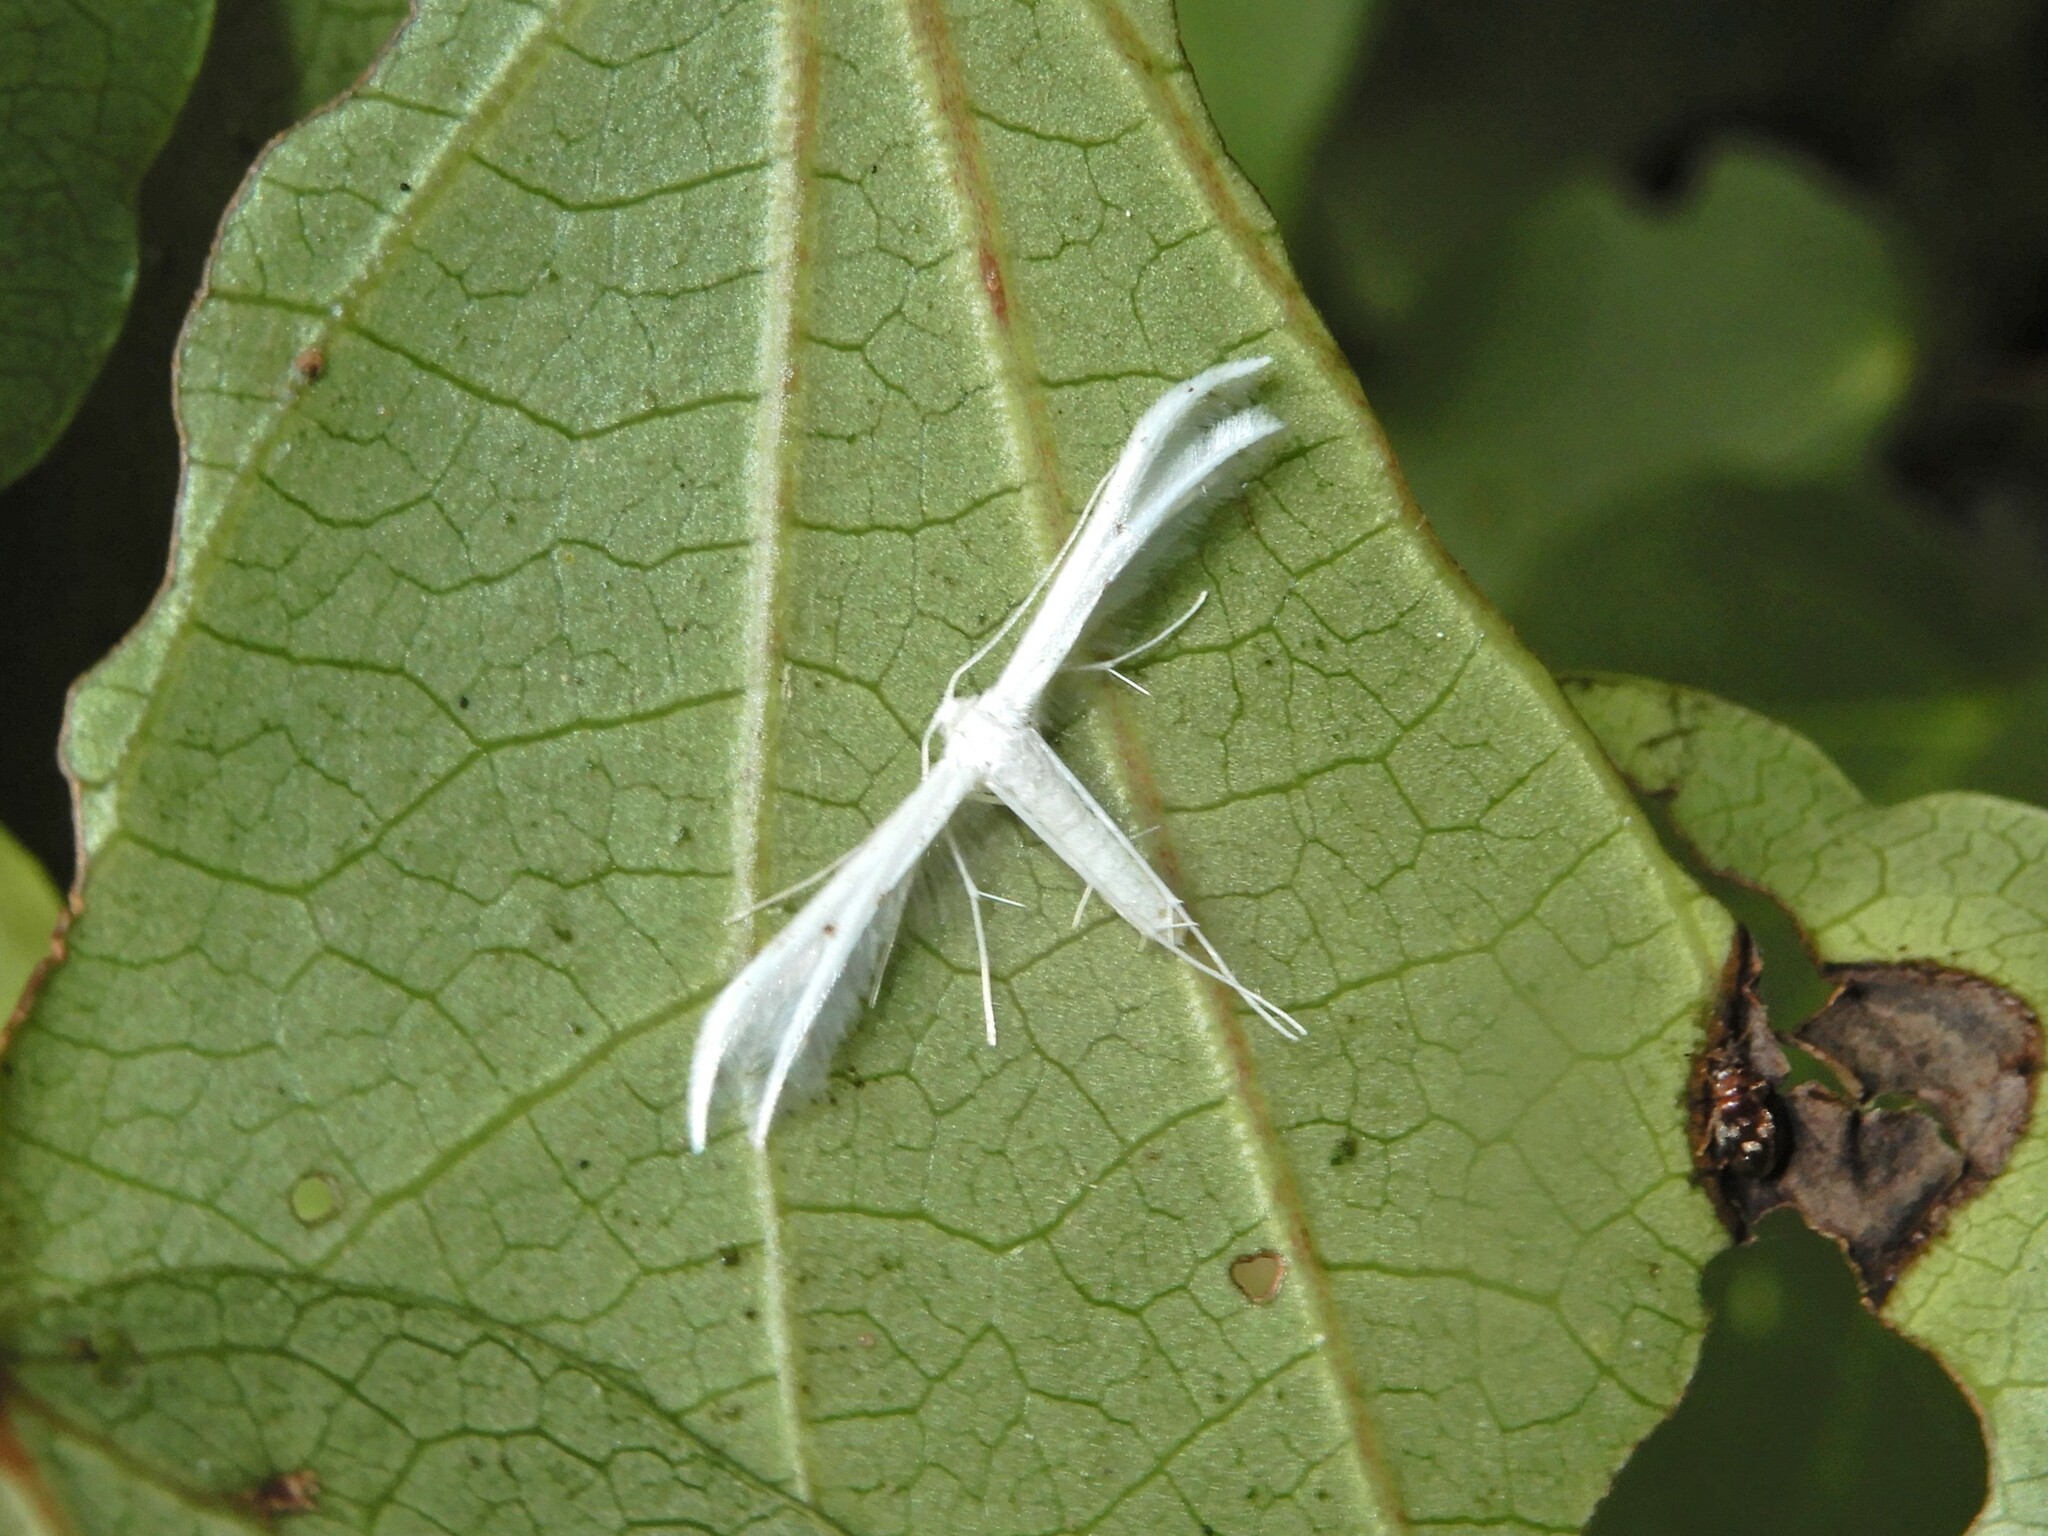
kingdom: Animalia
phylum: Arthropoda
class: Insecta
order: Lepidoptera
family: Pterophoridae
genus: Pterophorus
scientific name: Pterophorus monospilalis
